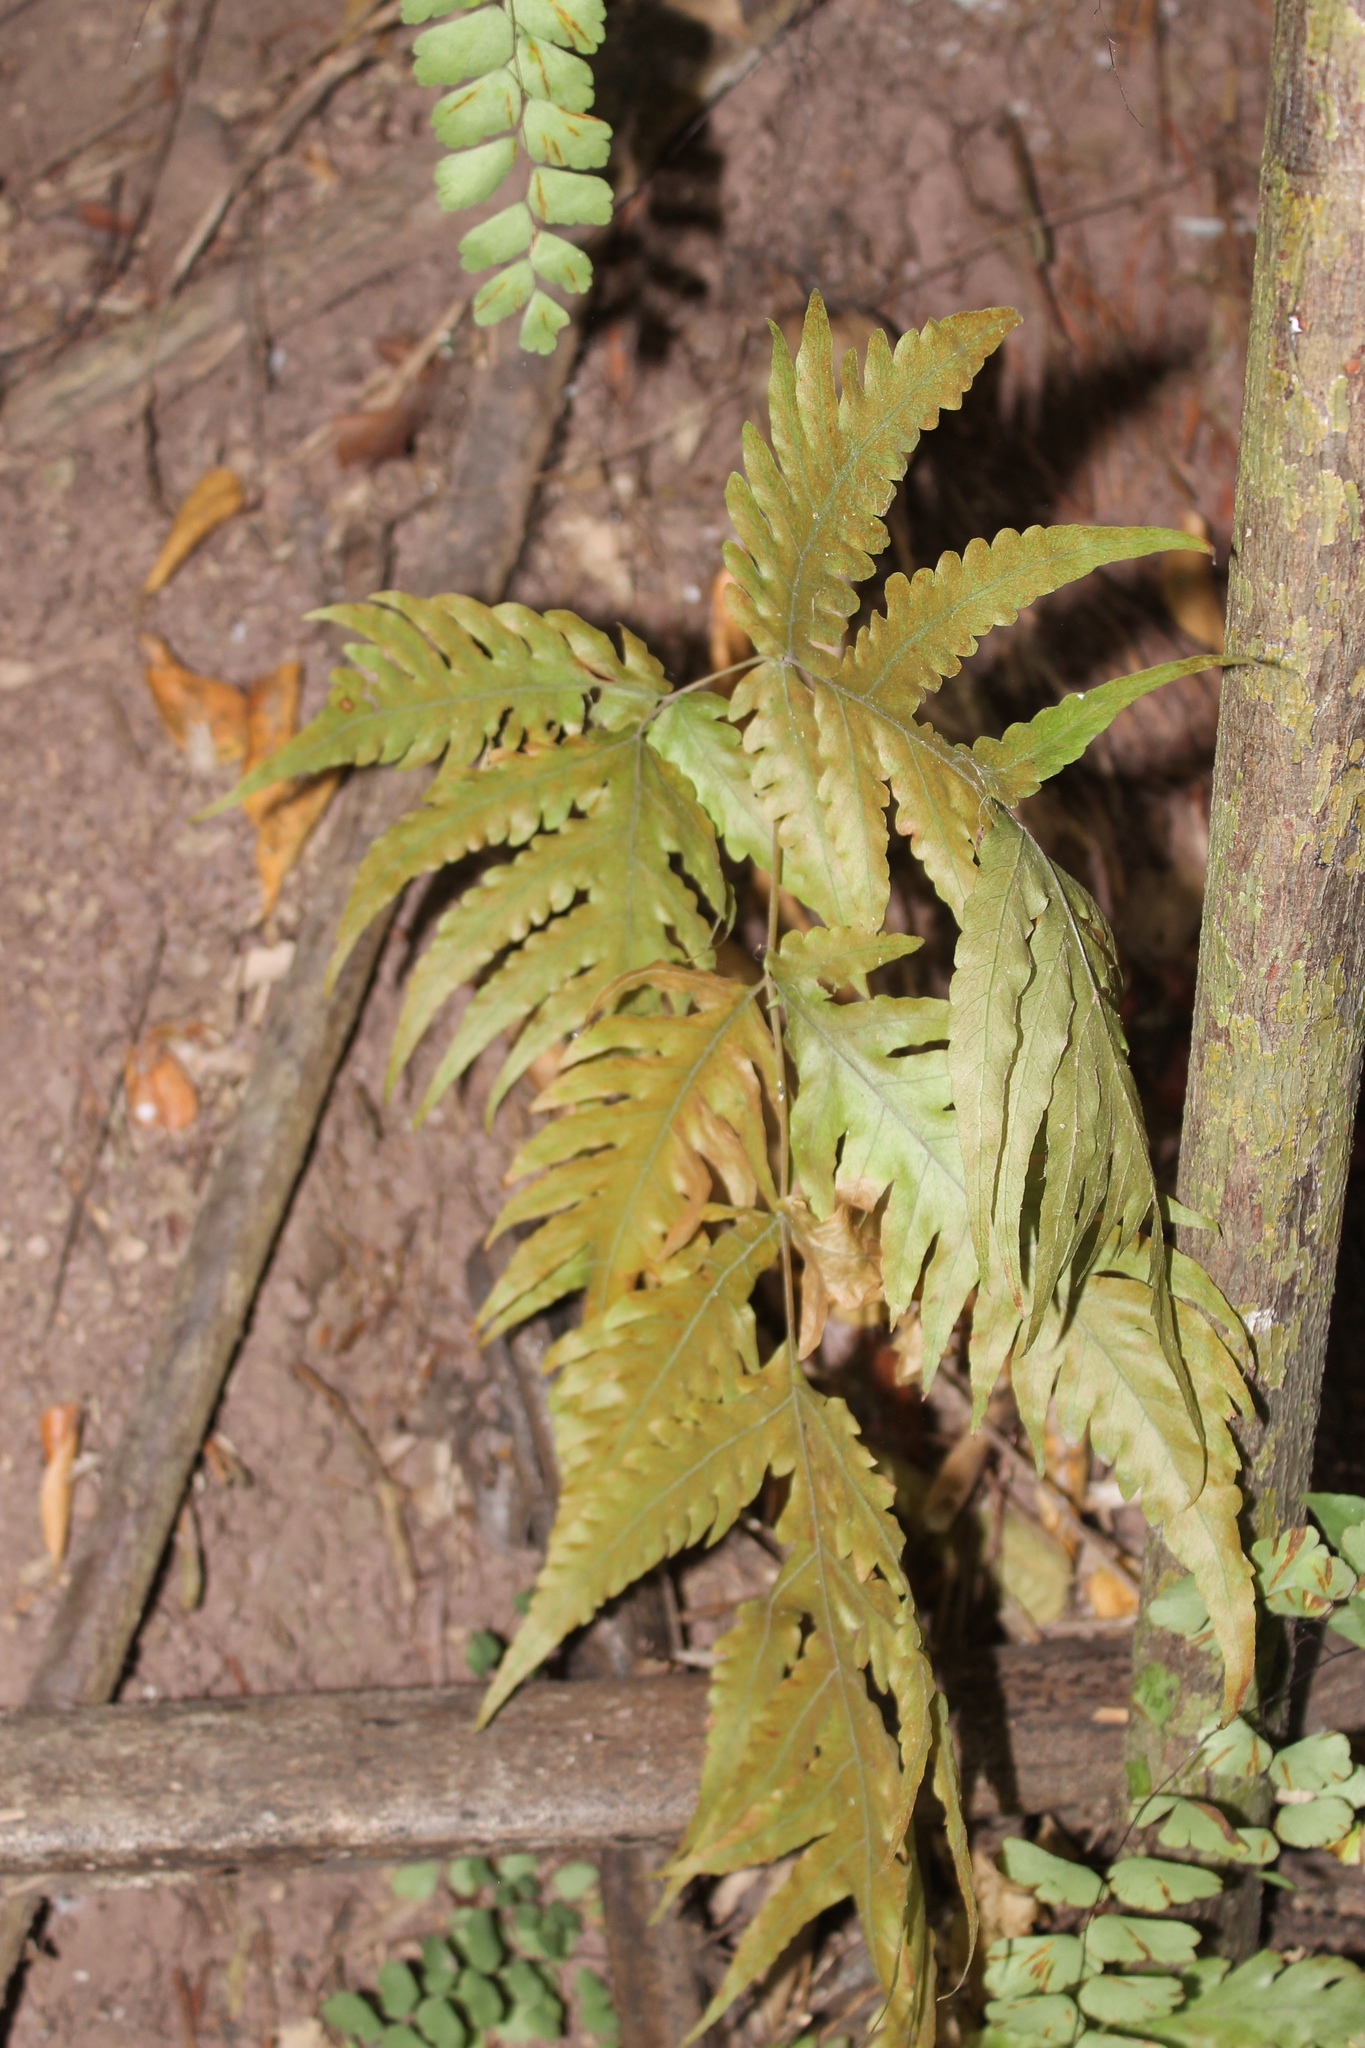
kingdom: Plantae
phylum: Tracheophyta
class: Polypodiopsida
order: Polypodiales
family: Tectariaceae
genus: Tectaria
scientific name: Tectaria mexicana
